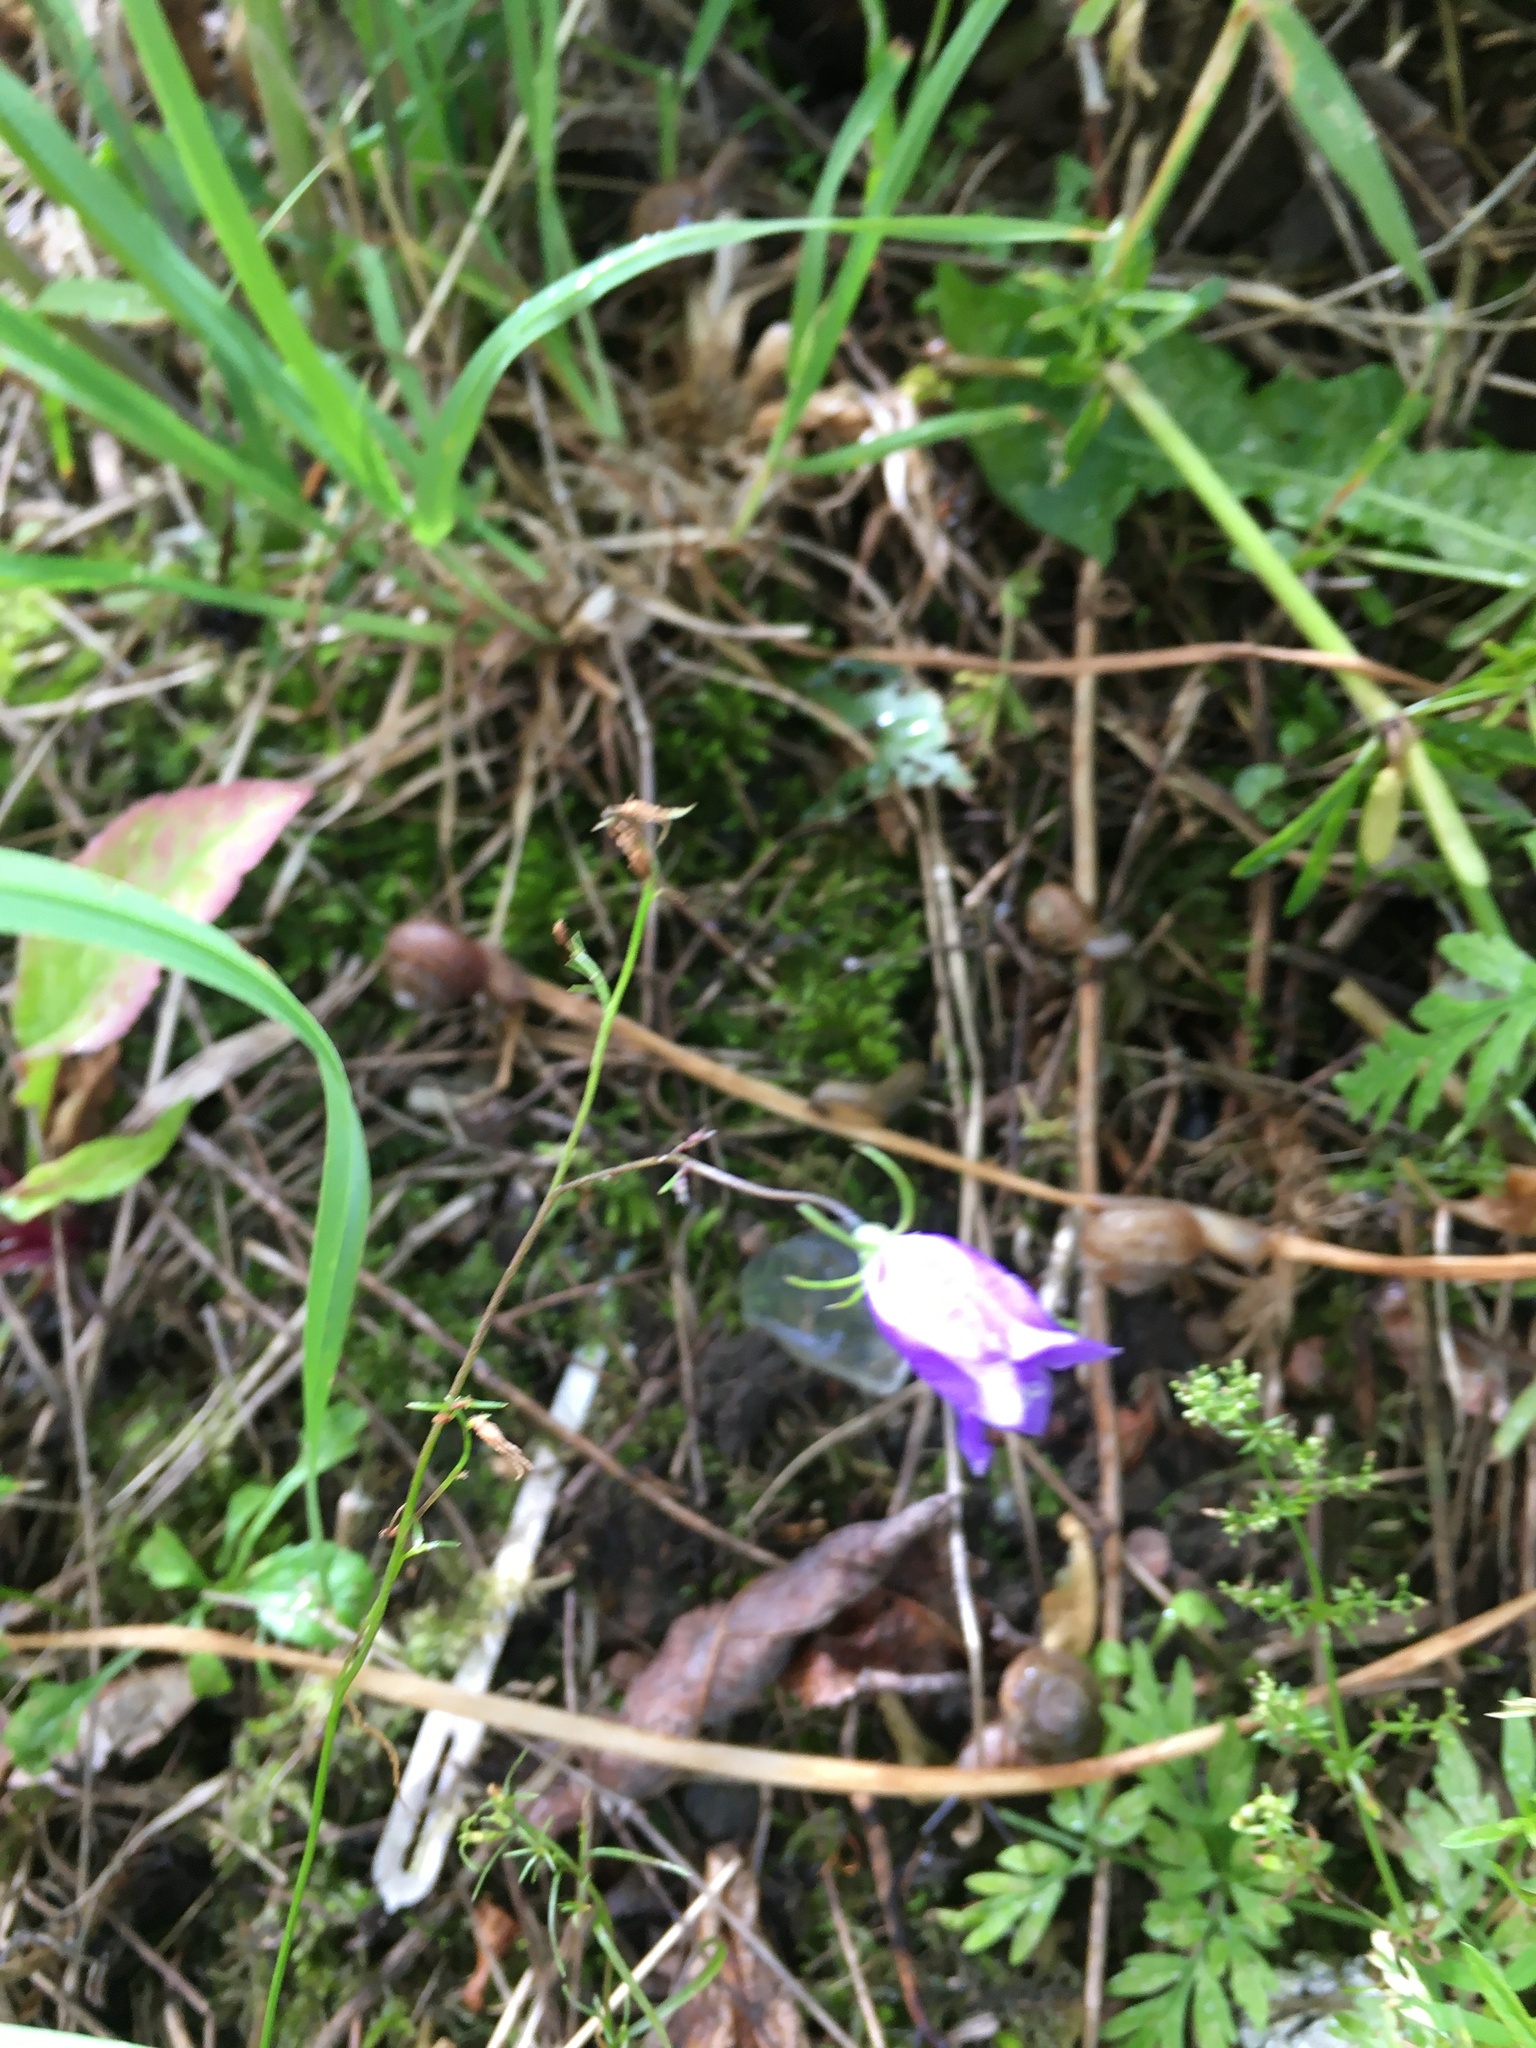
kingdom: Plantae
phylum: Tracheophyta
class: Magnoliopsida
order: Asterales
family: Campanulaceae
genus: Campanula
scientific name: Campanula rotundifolia
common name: Harebell
